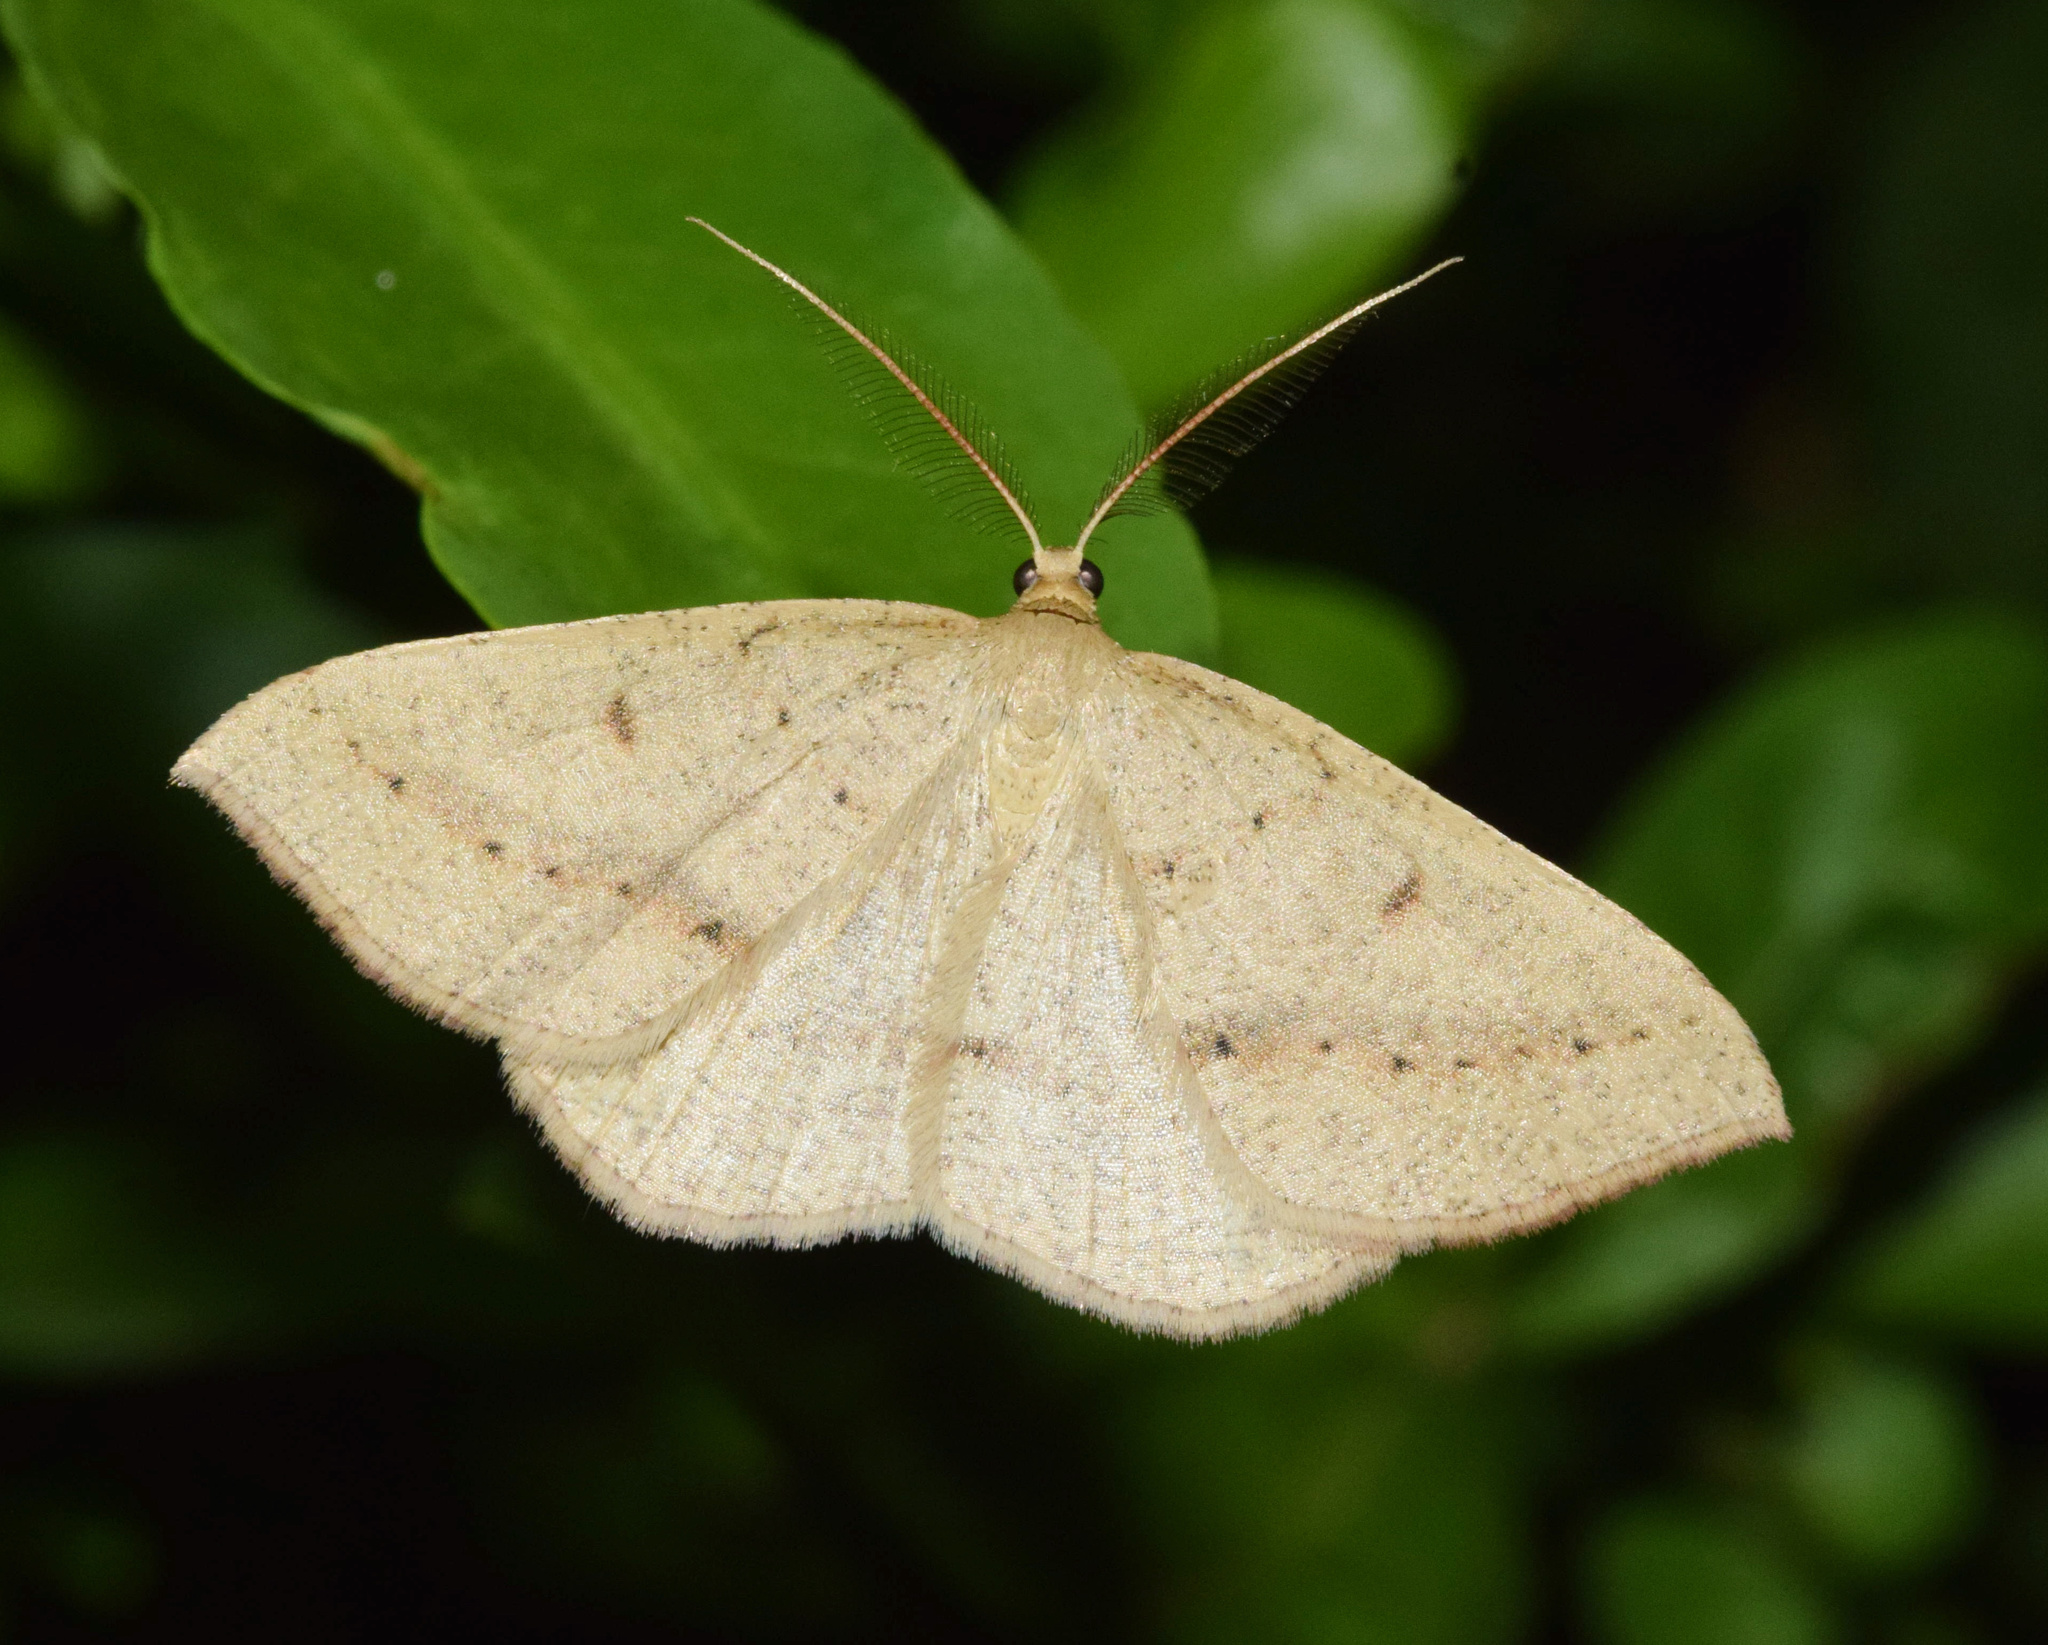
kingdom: Animalia
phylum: Arthropoda
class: Insecta
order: Lepidoptera
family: Geometridae
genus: Palaeaspilates
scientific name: Palaeaspilates inoffensa
